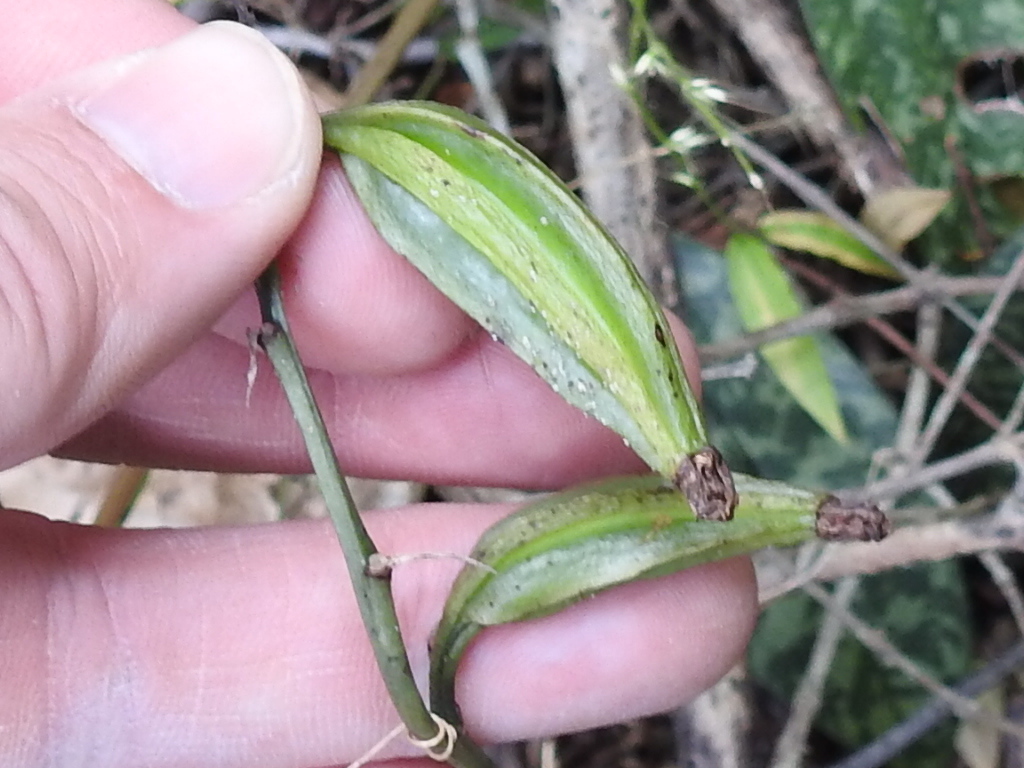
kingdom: Plantae
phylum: Tracheophyta
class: Liliopsida
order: Asparagales
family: Orchidaceae
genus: Eulophia
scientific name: Eulophia maculata
